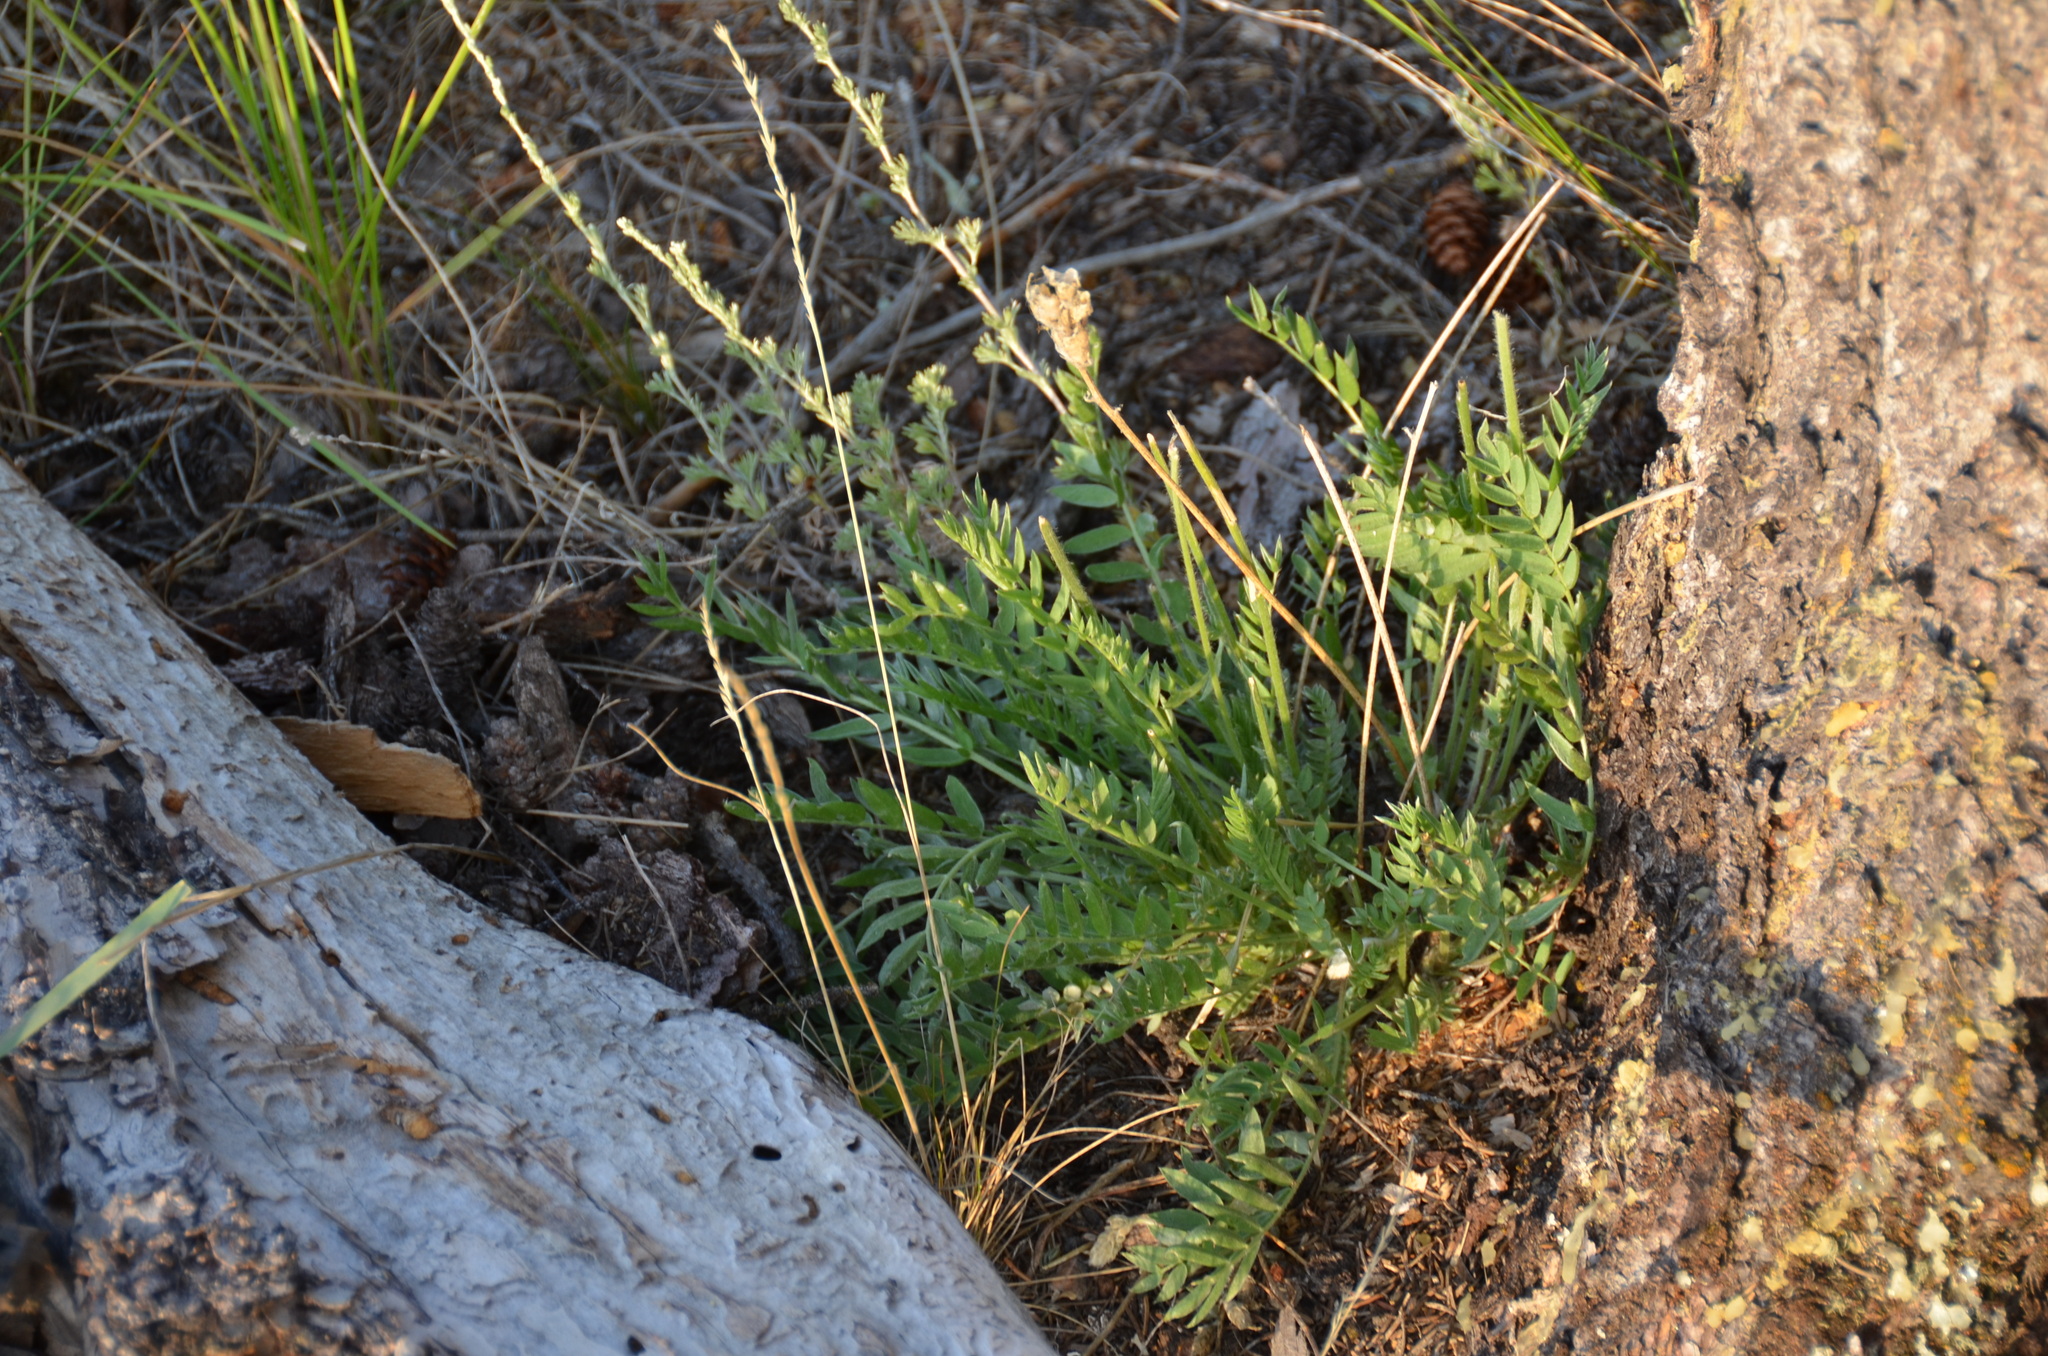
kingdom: Plantae
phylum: Tracheophyta
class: Magnoliopsida
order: Fabales
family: Fabaceae
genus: Oxytropis
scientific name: Oxytropis campestris
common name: Field locoweed
